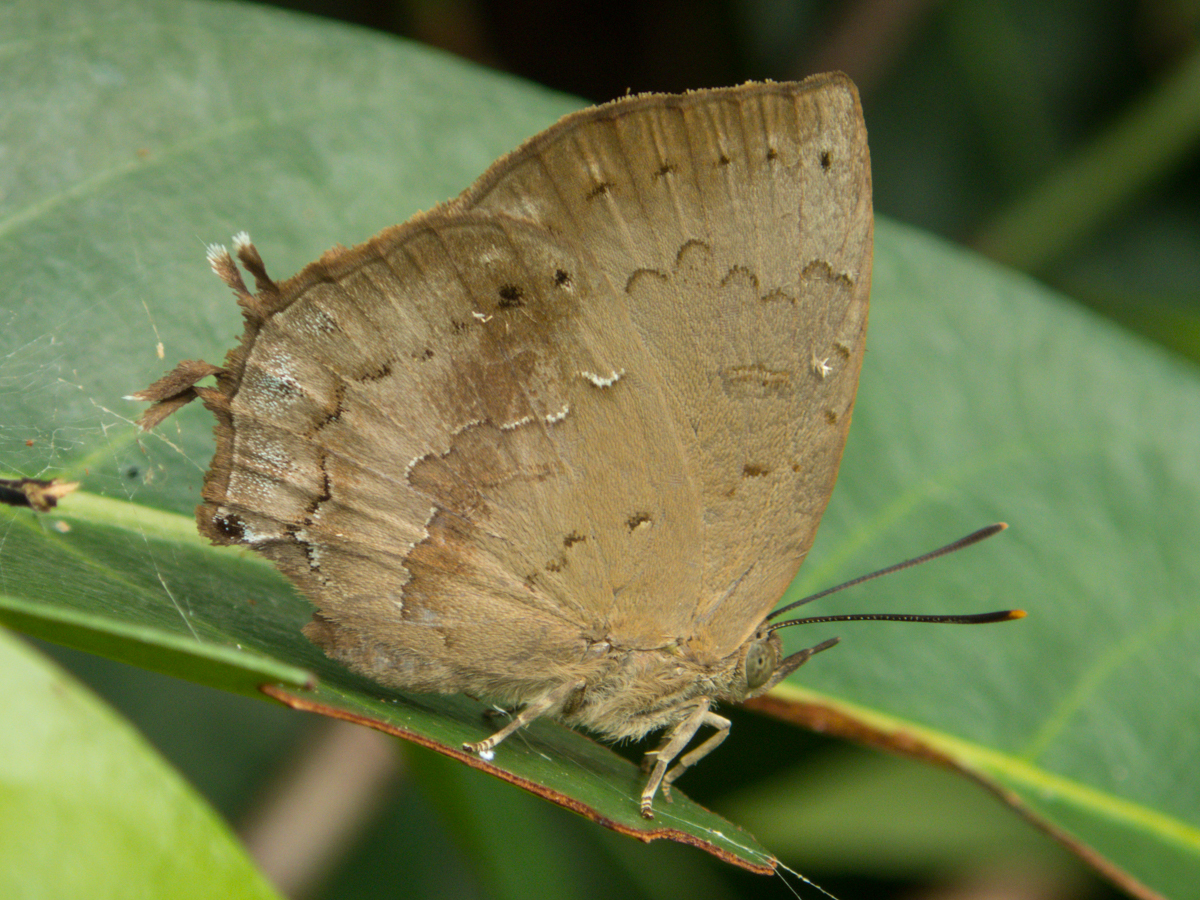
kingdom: Animalia
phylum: Arthropoda
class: Insecta
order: Lepidoptera
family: Lycaenidae
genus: Surendra
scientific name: Surendra vivarna
